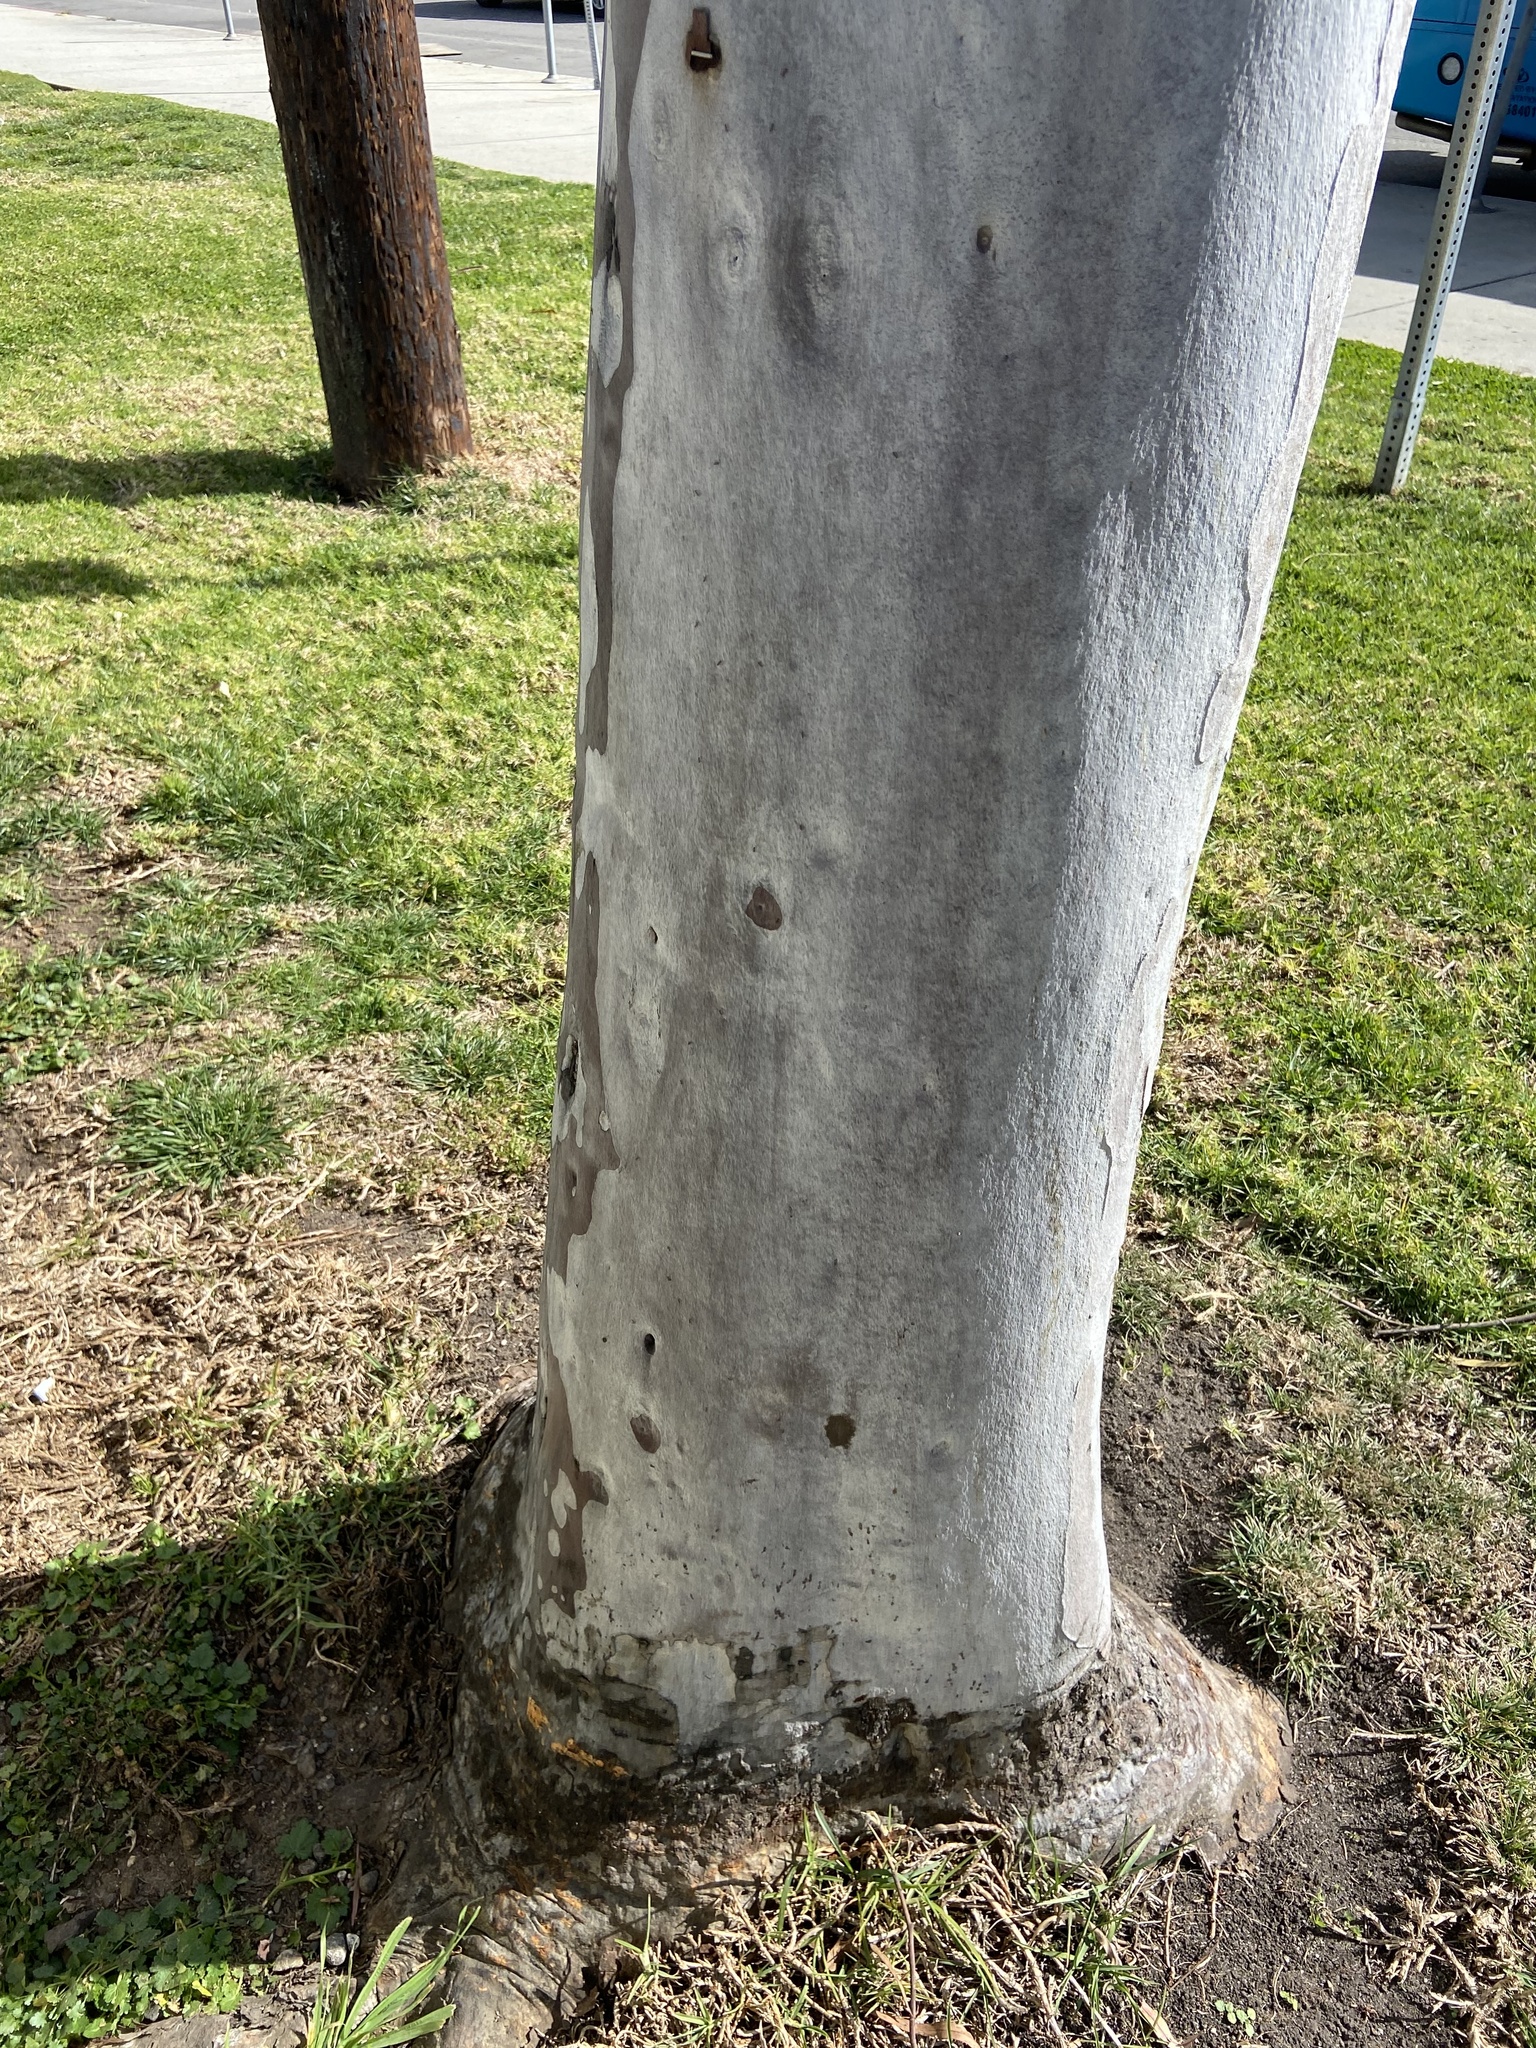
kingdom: Animalia
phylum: Arthropoda
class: Insecta
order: Hymenoptera
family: Formicidae
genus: Linepithema
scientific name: Linepithema humile
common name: Argentine ant
